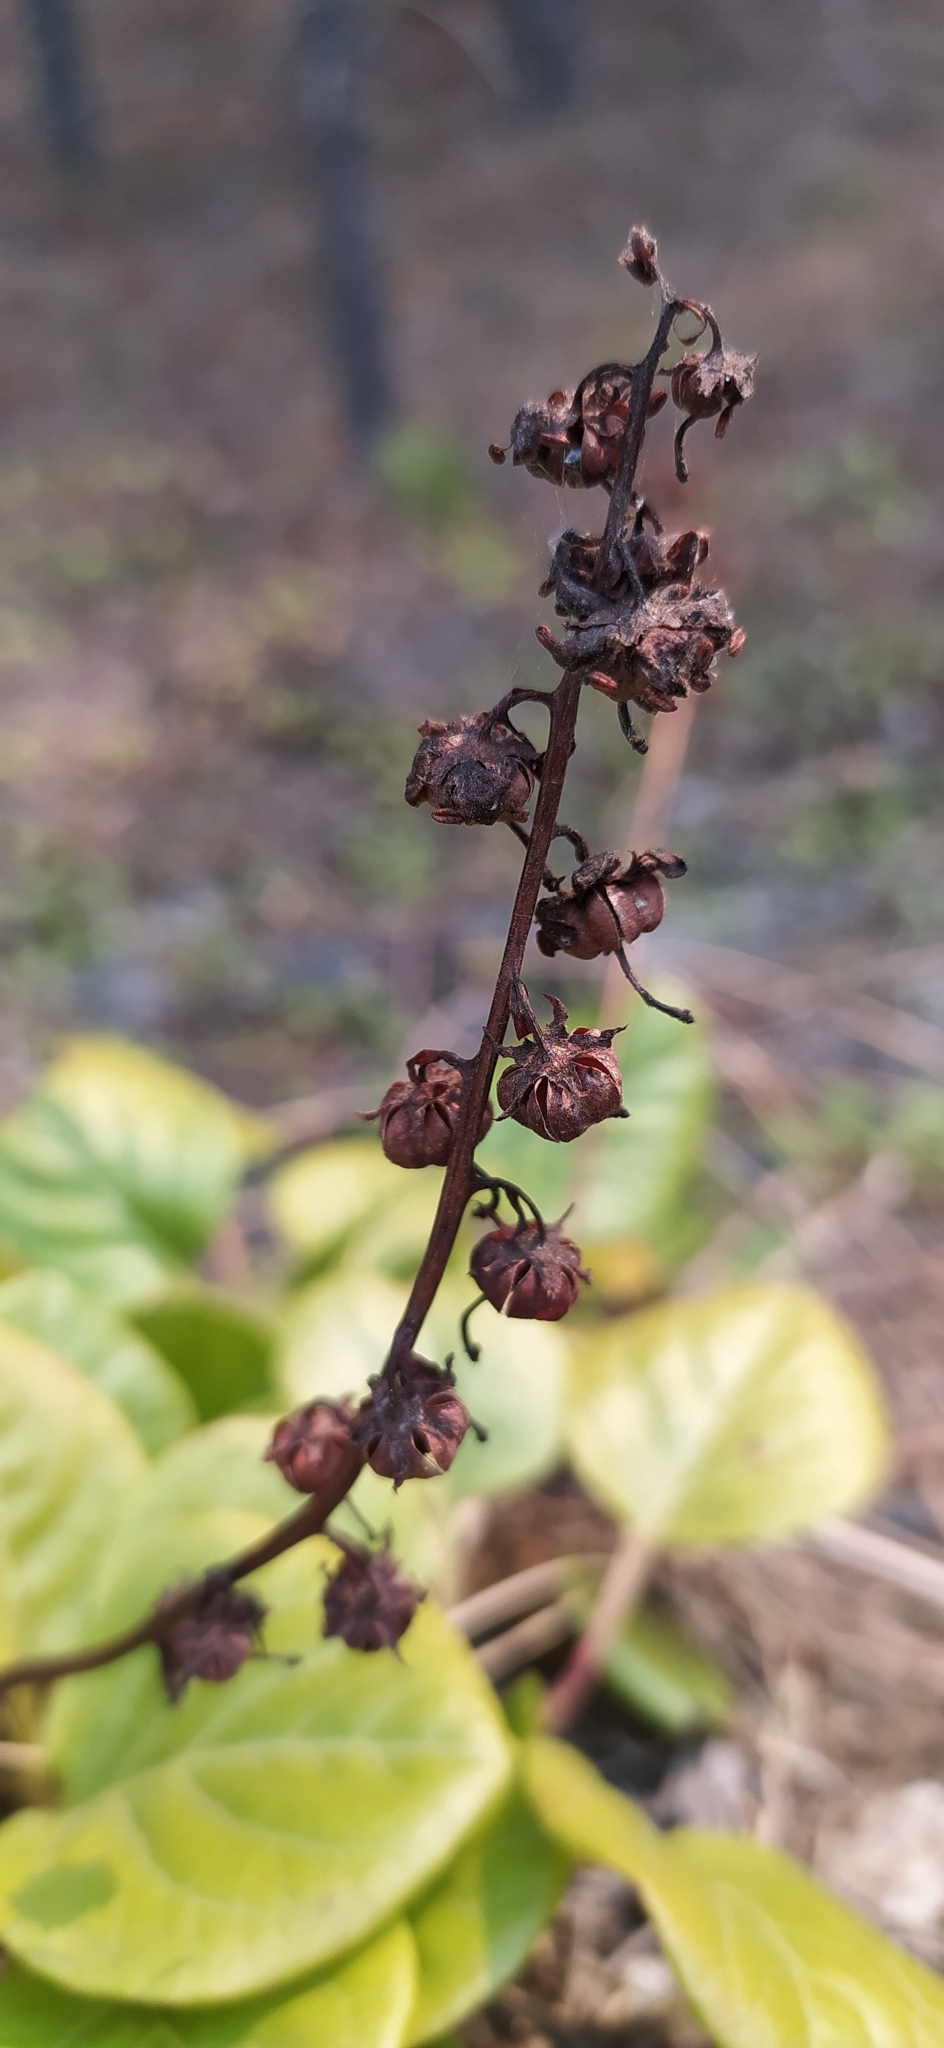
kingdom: Plantae
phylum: Tracheophyta
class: Magnoliopsida
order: Ericales
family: Ericaceae
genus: Pyrola
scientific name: Pyrola rotundifolia
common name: Round-leaved wintergreen
